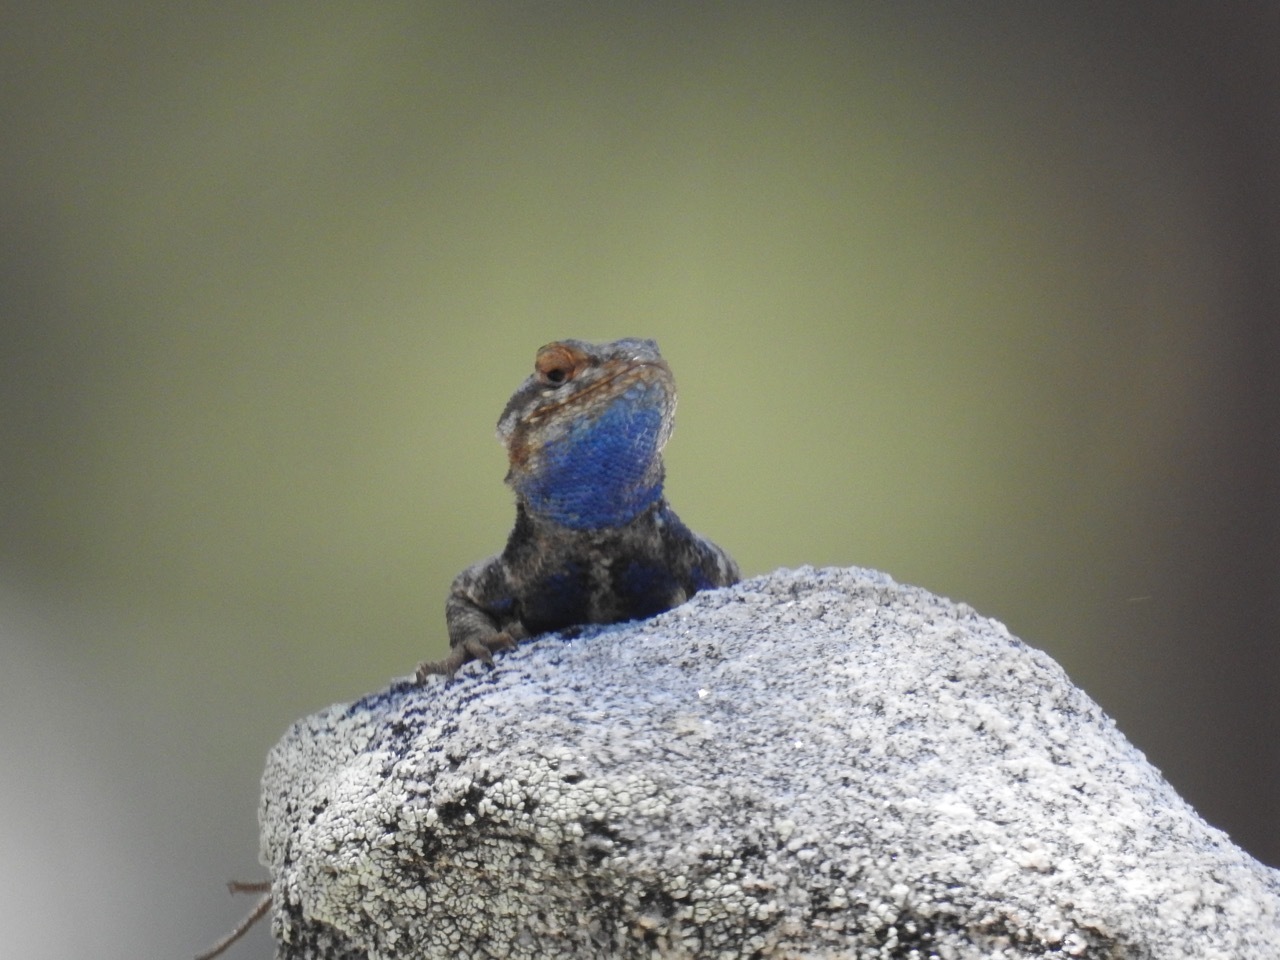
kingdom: Animalia
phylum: Chordata
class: Squamata
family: Phrynosomatidae
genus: Sceloporus
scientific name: Sceloporus graciosus
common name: Sagebrush lizard
